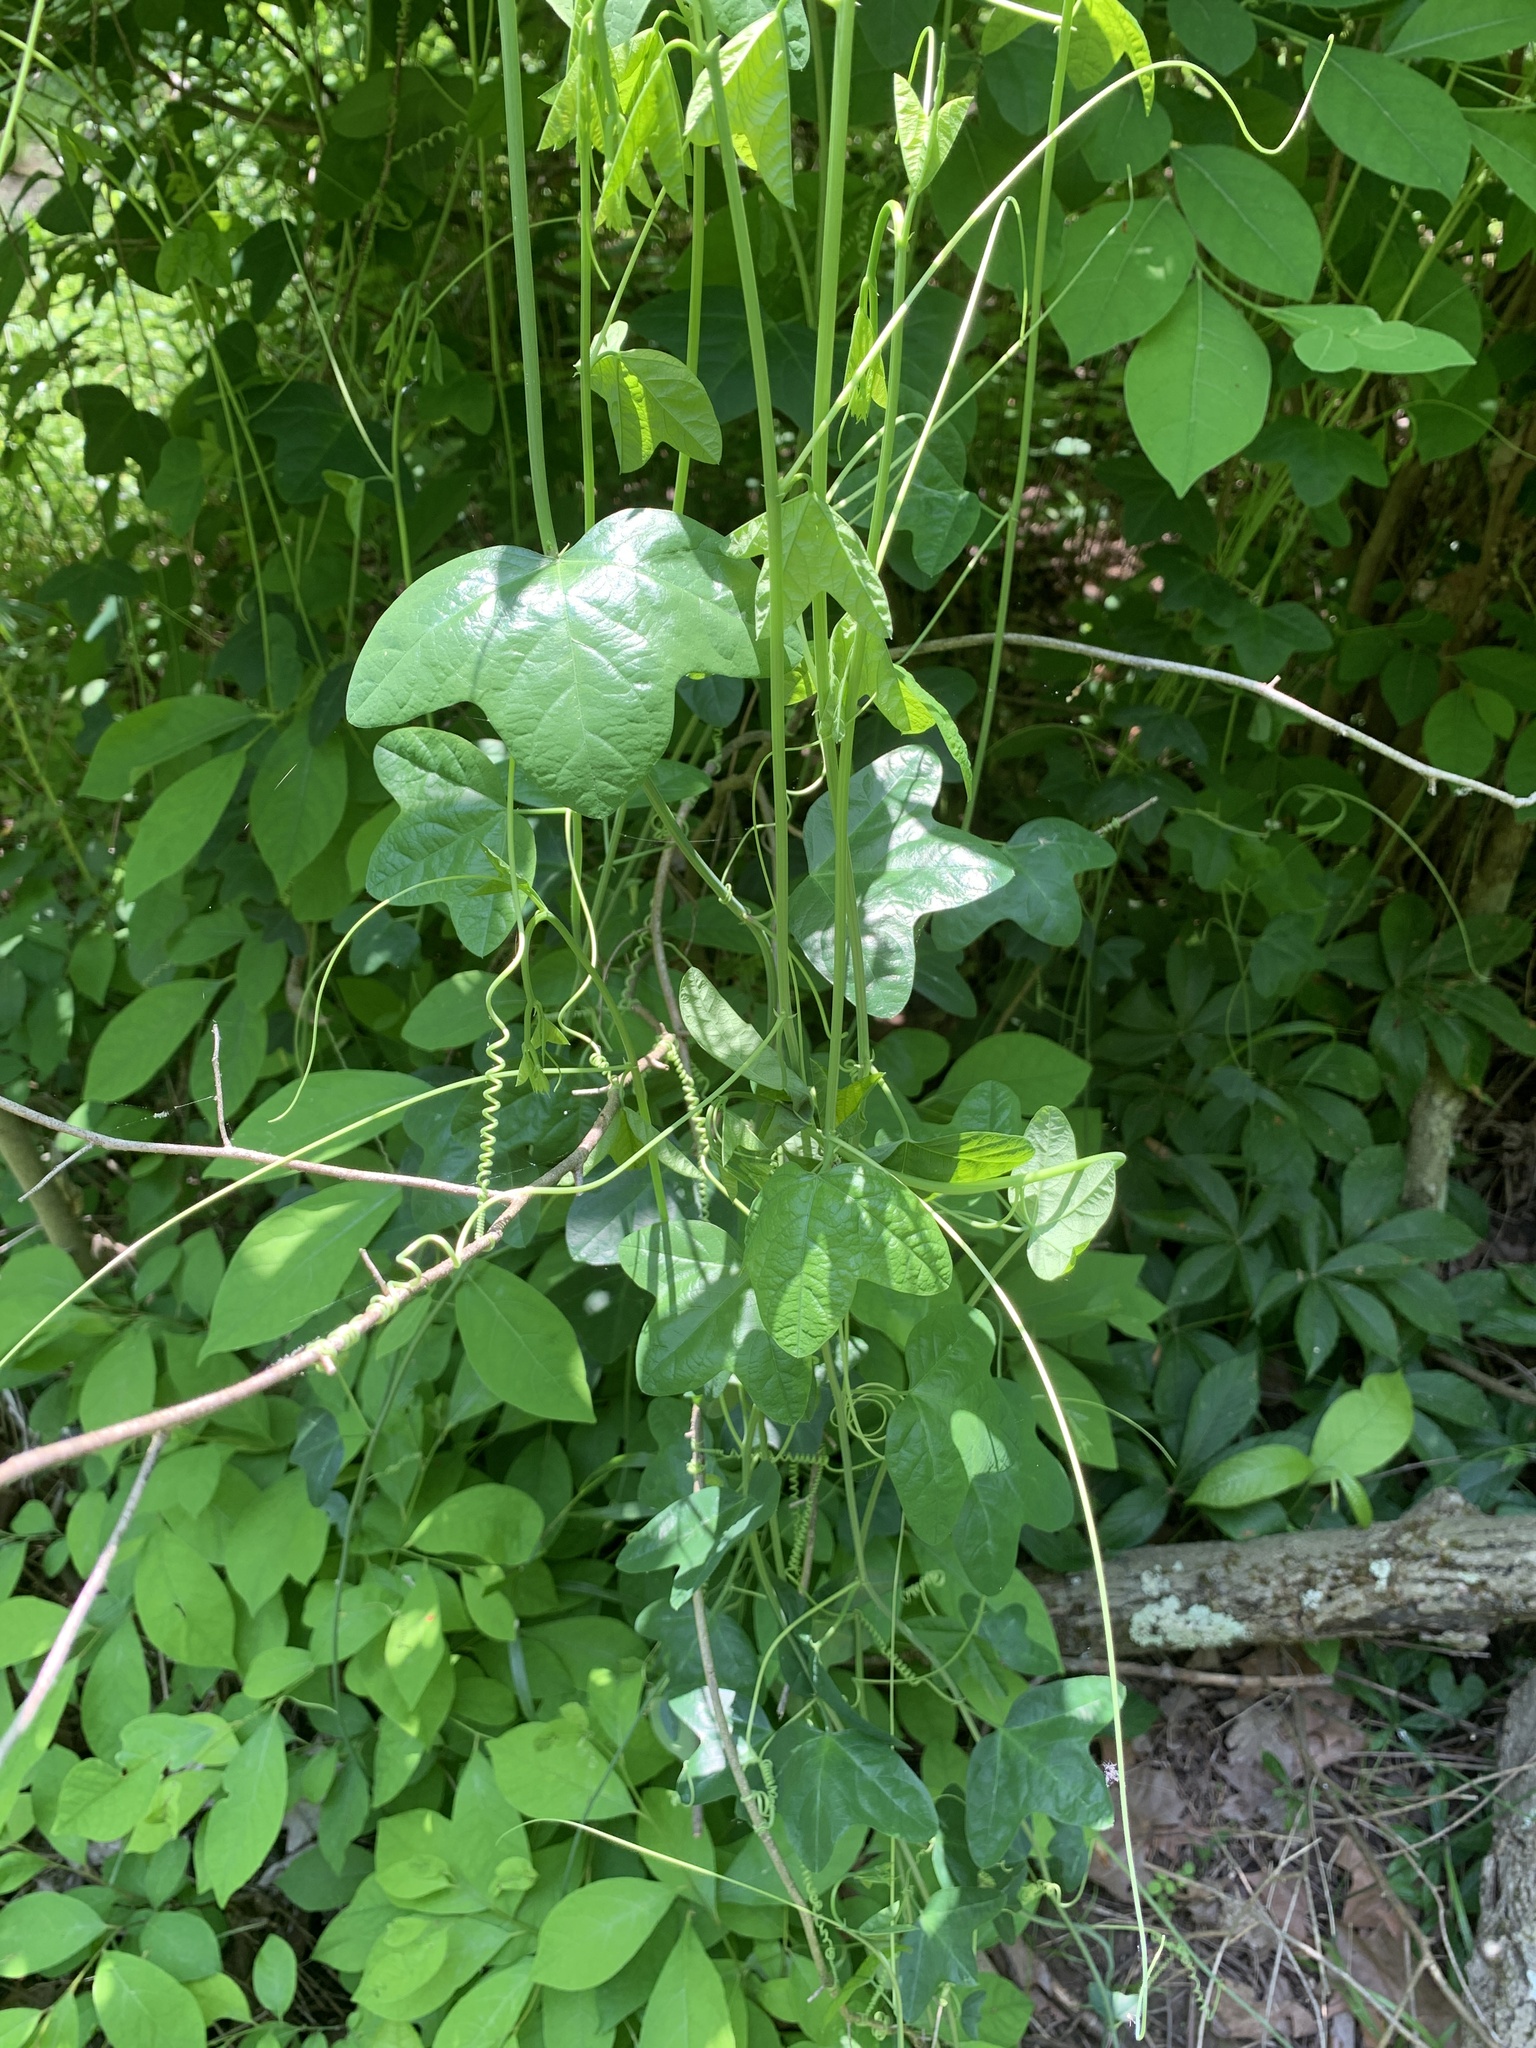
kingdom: Plantae
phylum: Tracheophyta
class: Magnoliopsida
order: Malpighiales
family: Passifloraceae
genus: Passiflora
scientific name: Passiflora lutea
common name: Yellow passionflower
